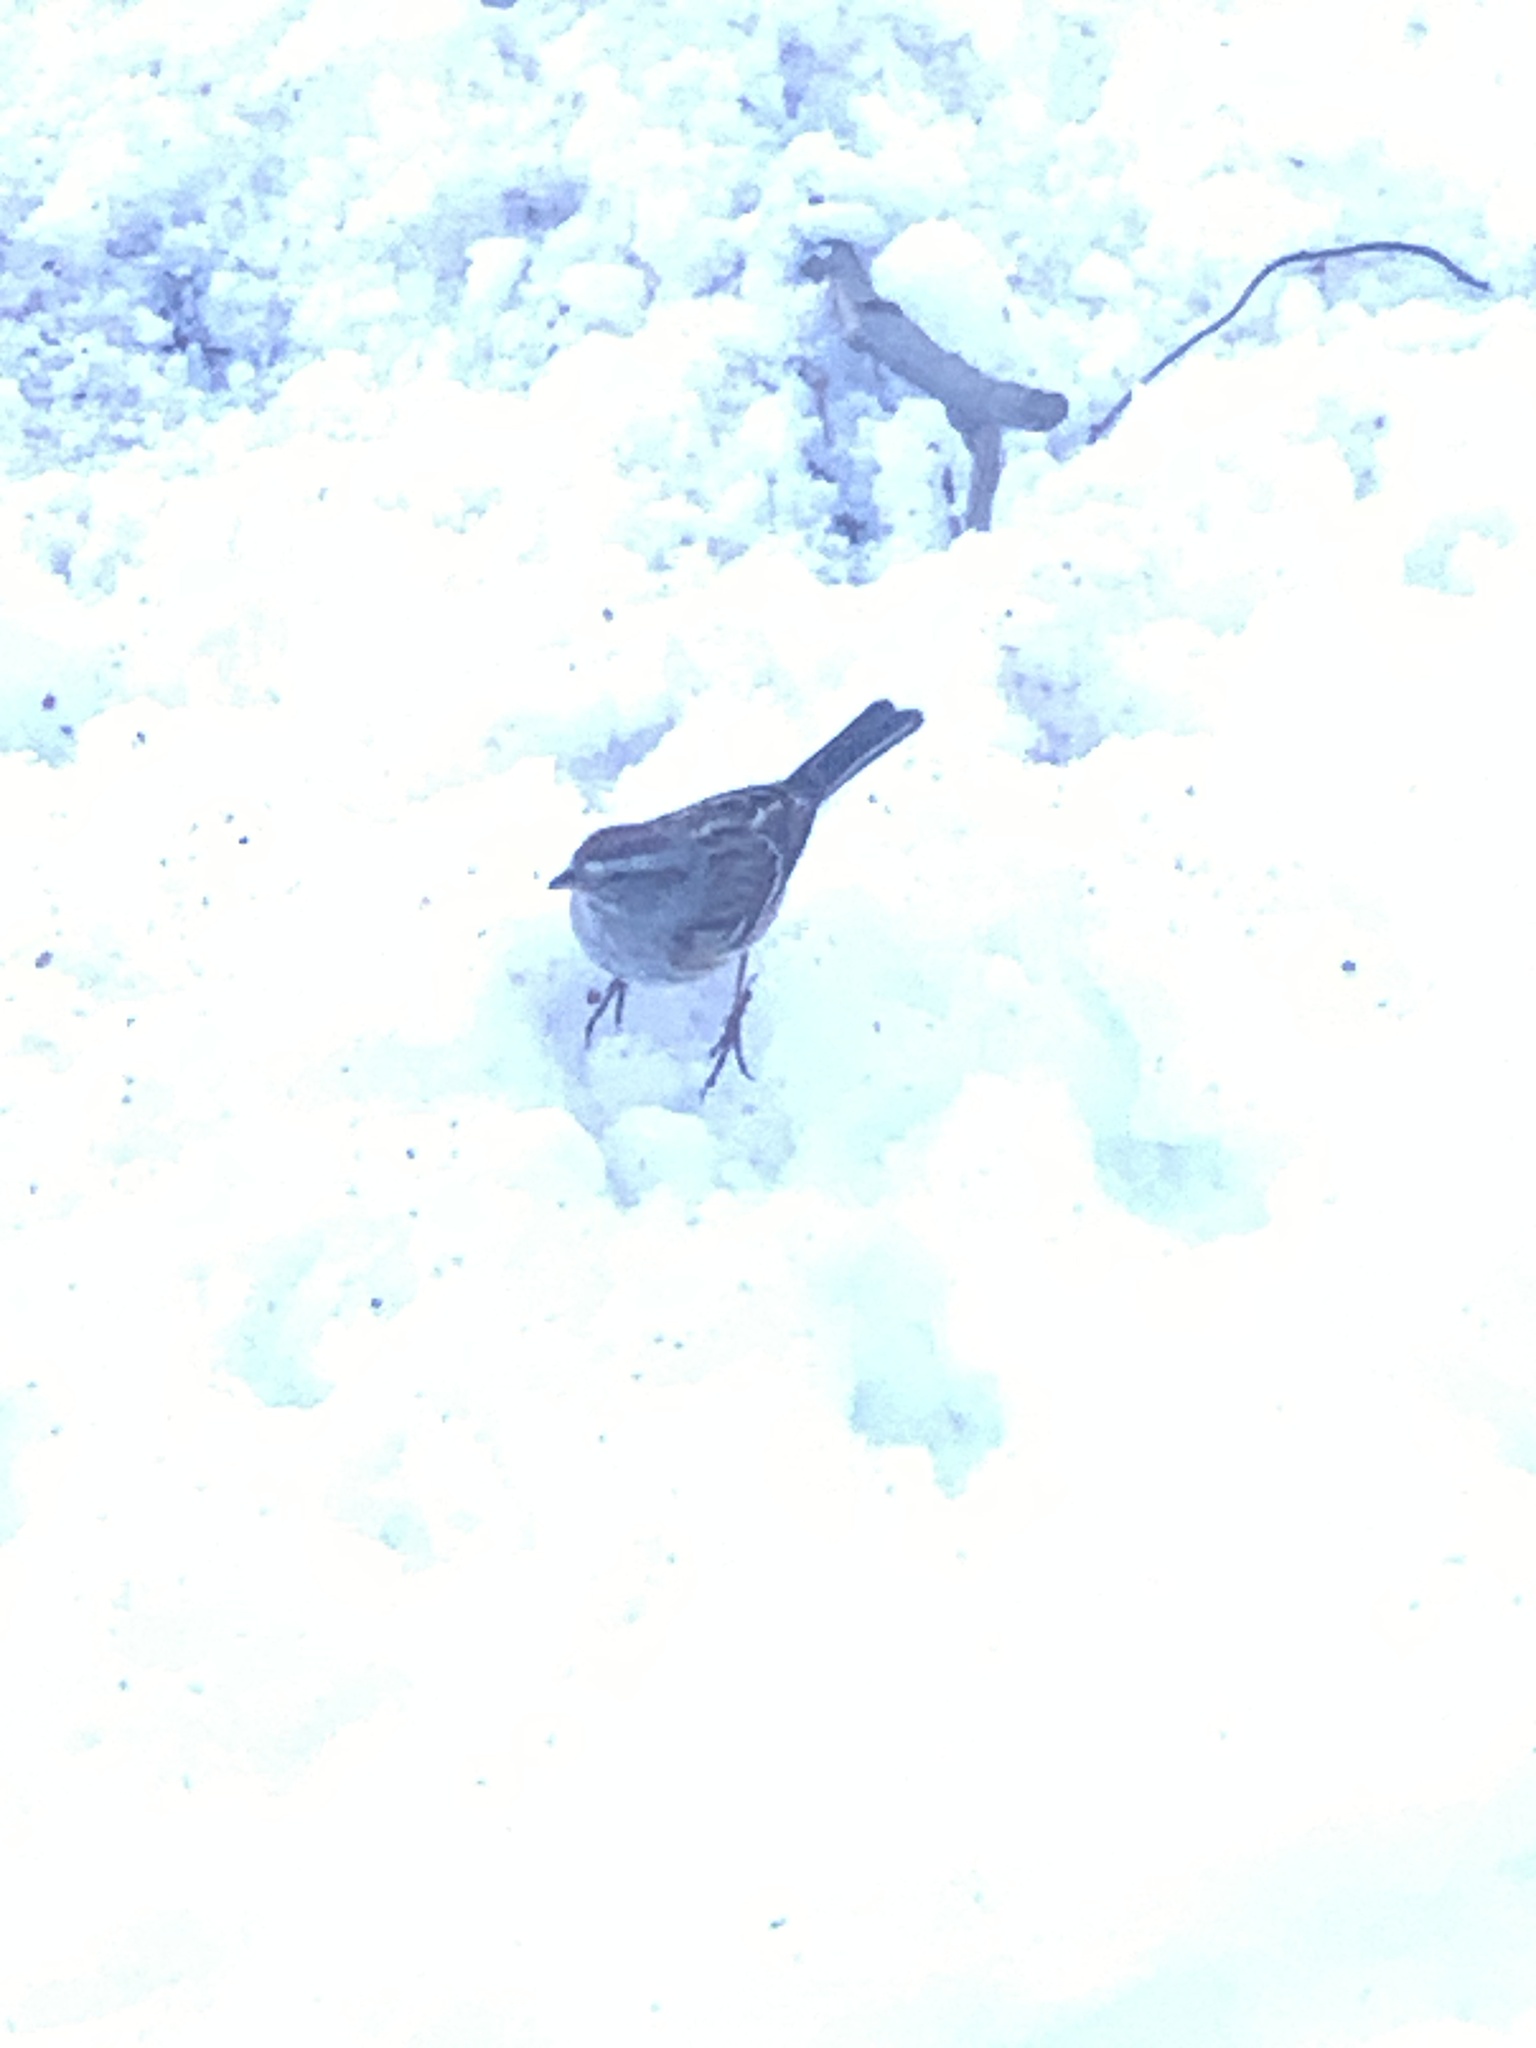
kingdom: Animalia
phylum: Chordata
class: Aves
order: Passeriformes
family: Passerellidae
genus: Spizelloides
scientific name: Spizelloides arborea
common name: American tree sparrow
